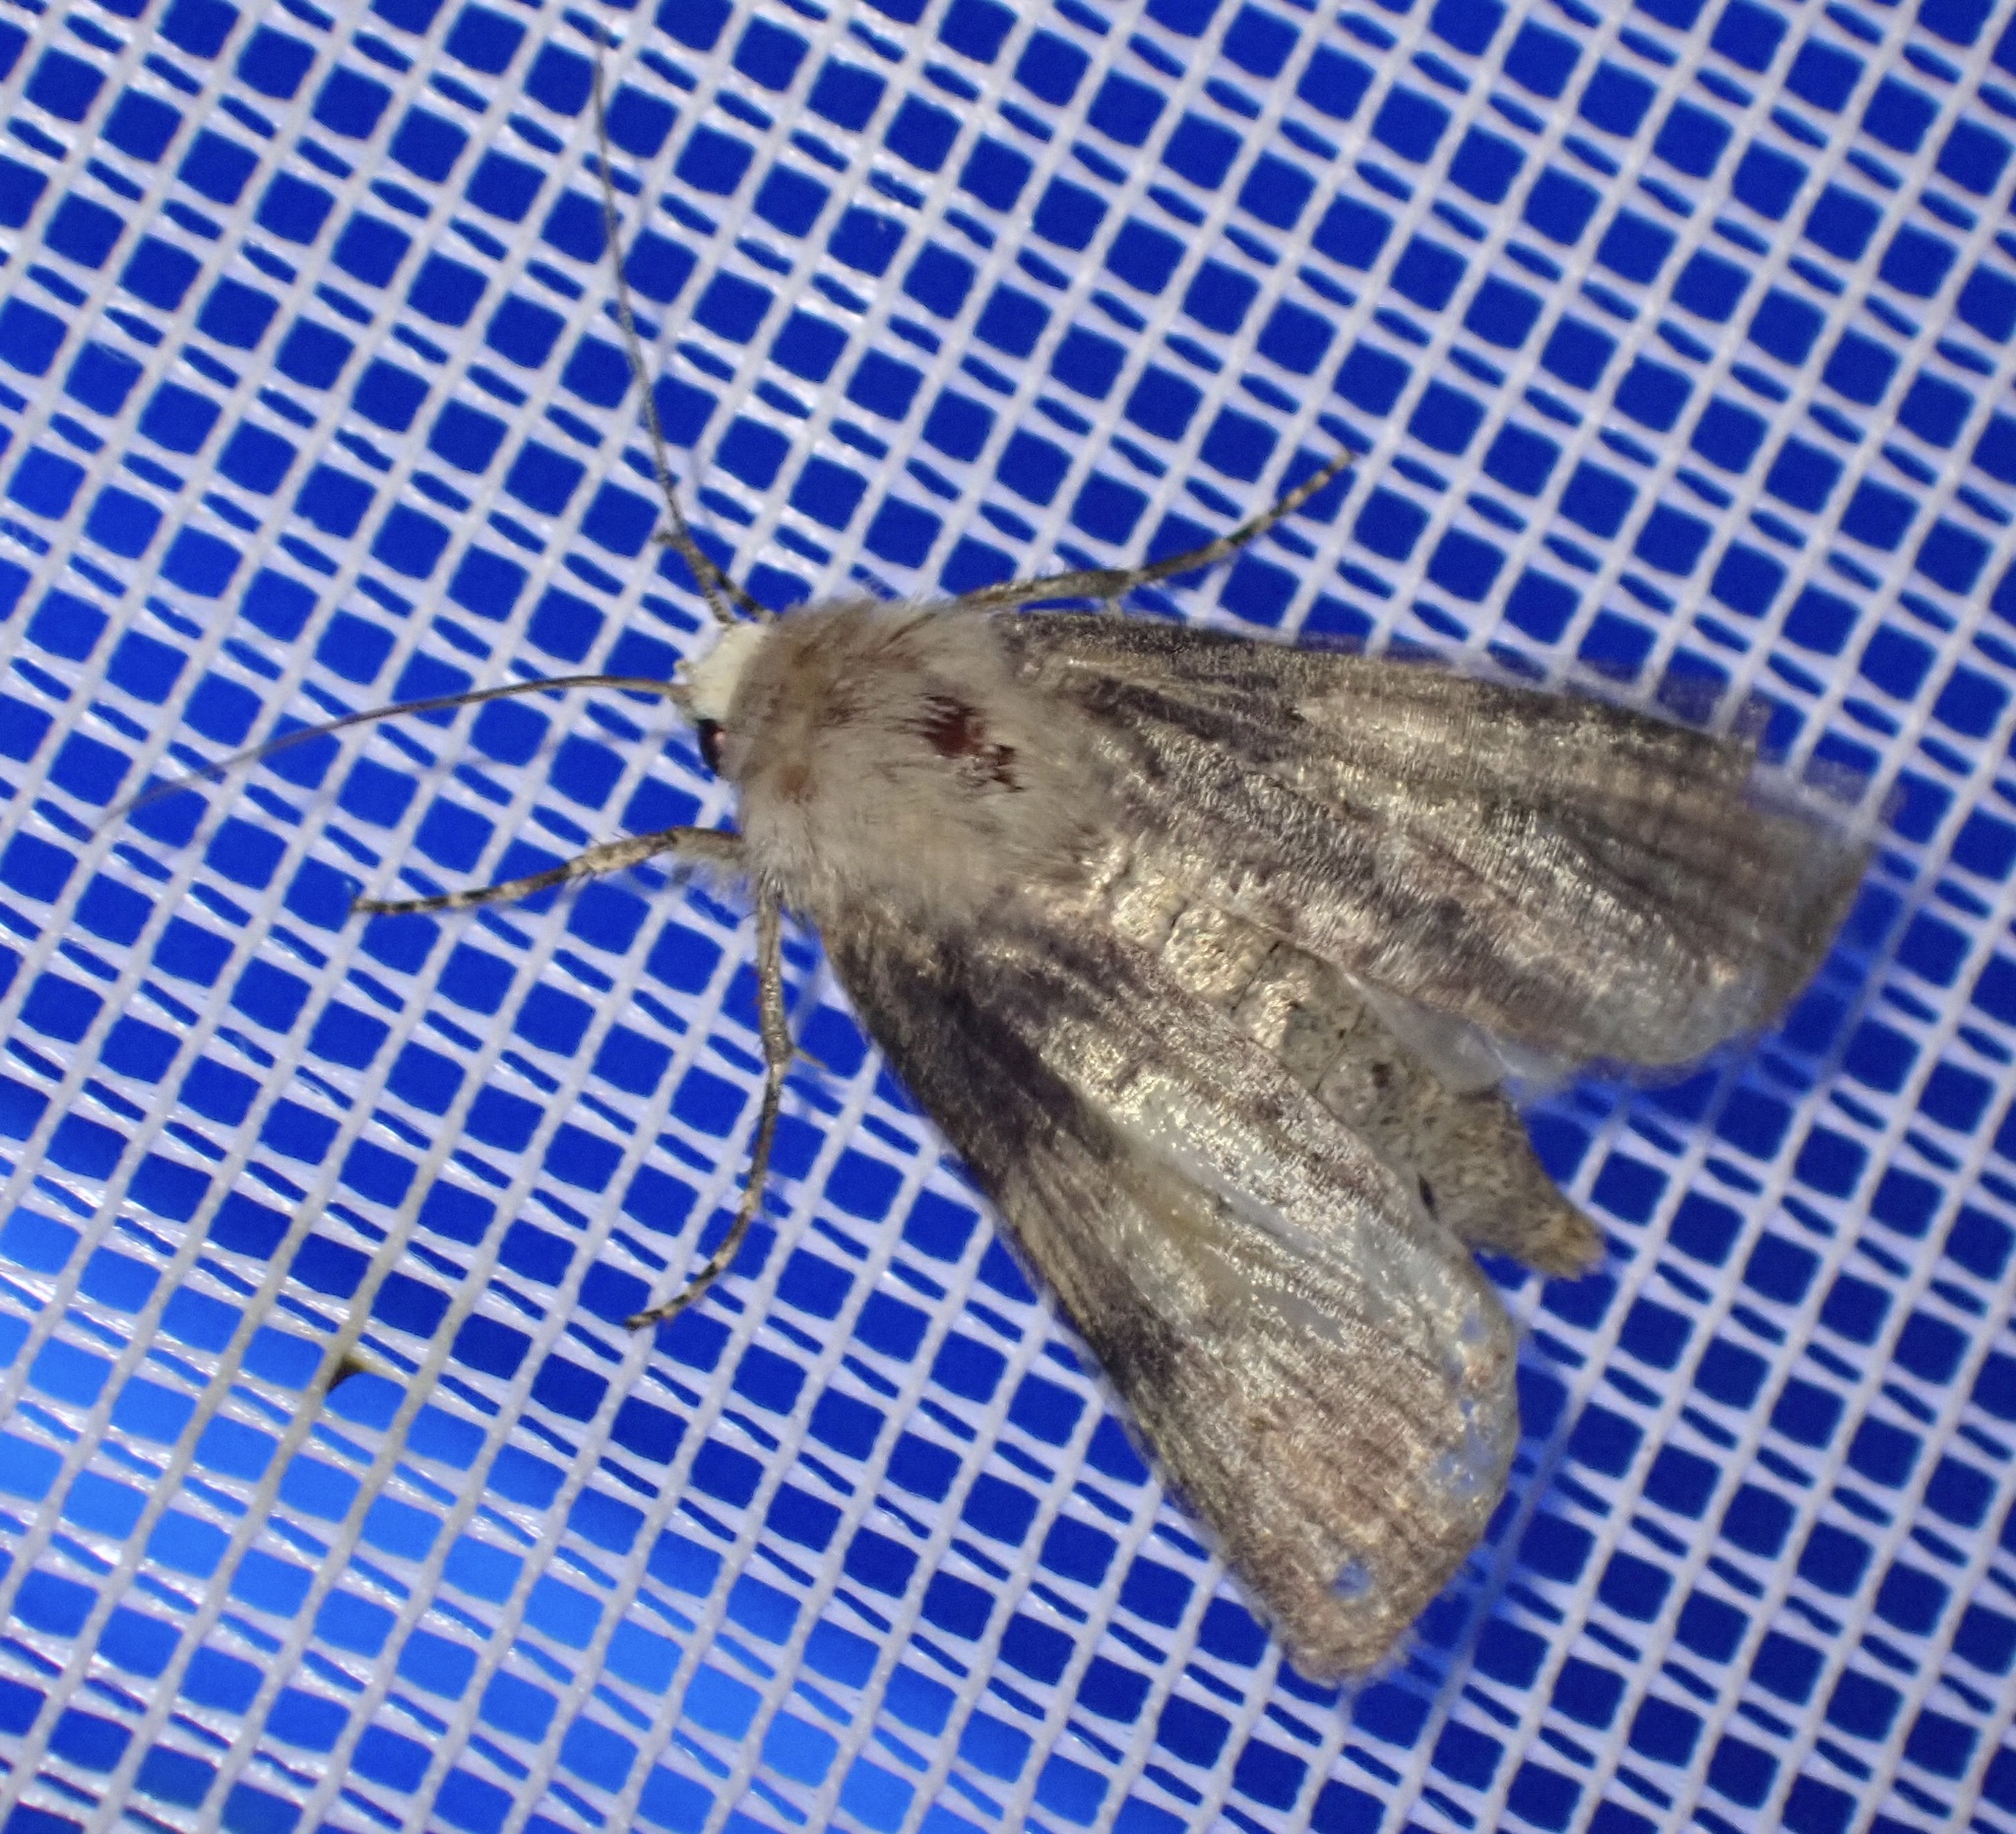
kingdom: Animalia
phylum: Arthropoda
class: Insecta
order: Lepidoptera
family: Noctuidae
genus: Agrotis
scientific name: Agrotis puta
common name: Shuttle-shaped dart
